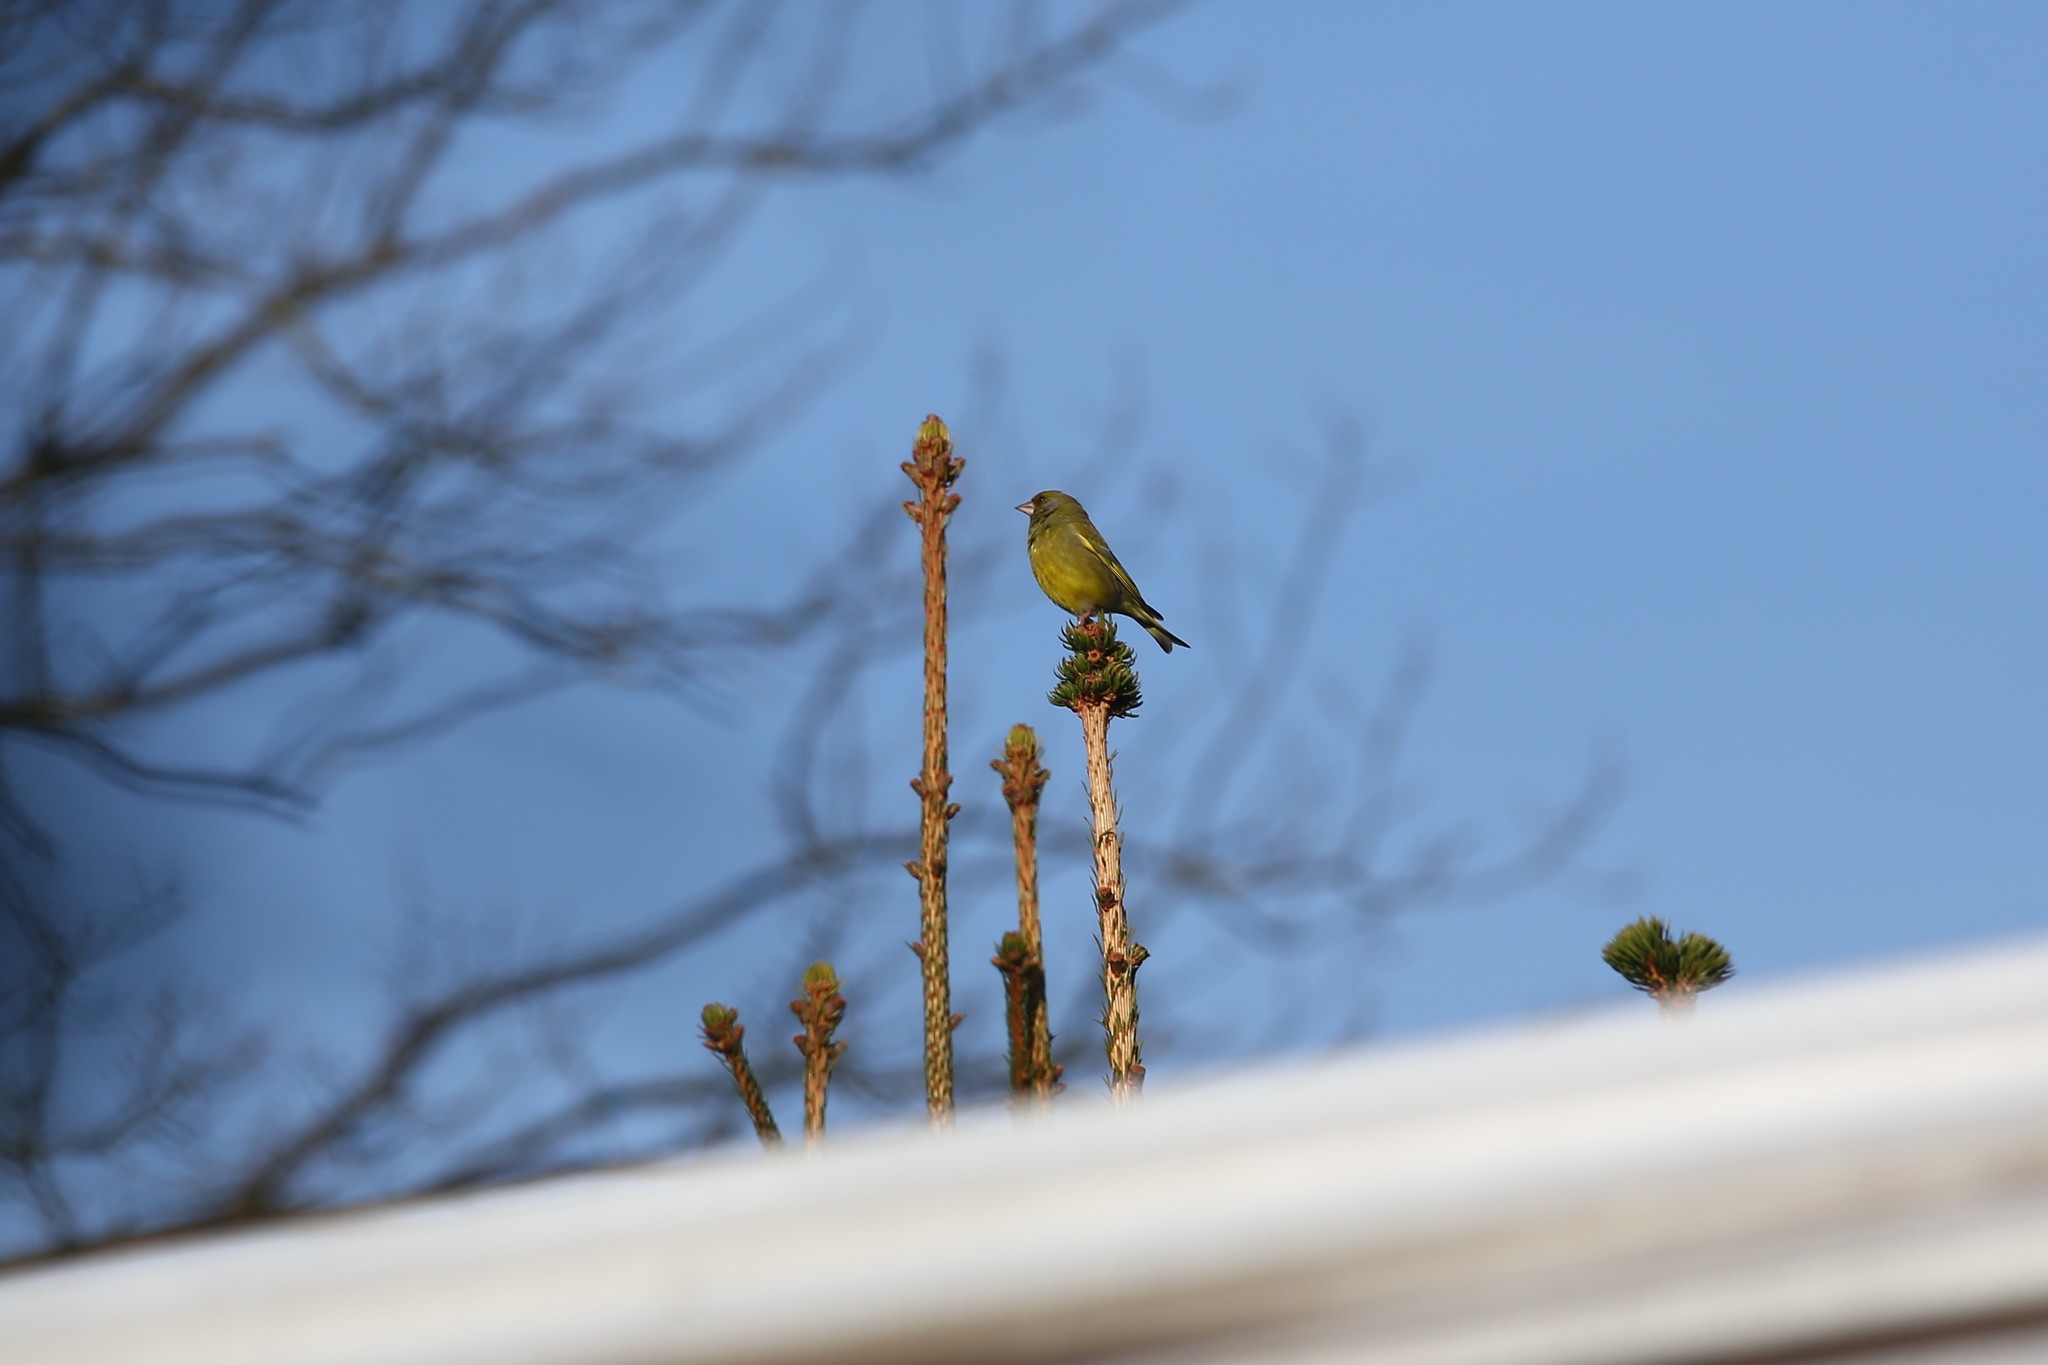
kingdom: Plantae
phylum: Tracheophyta
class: Liliopsida
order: Poales
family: Poaceae
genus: Chloris
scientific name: Chloris chloris
